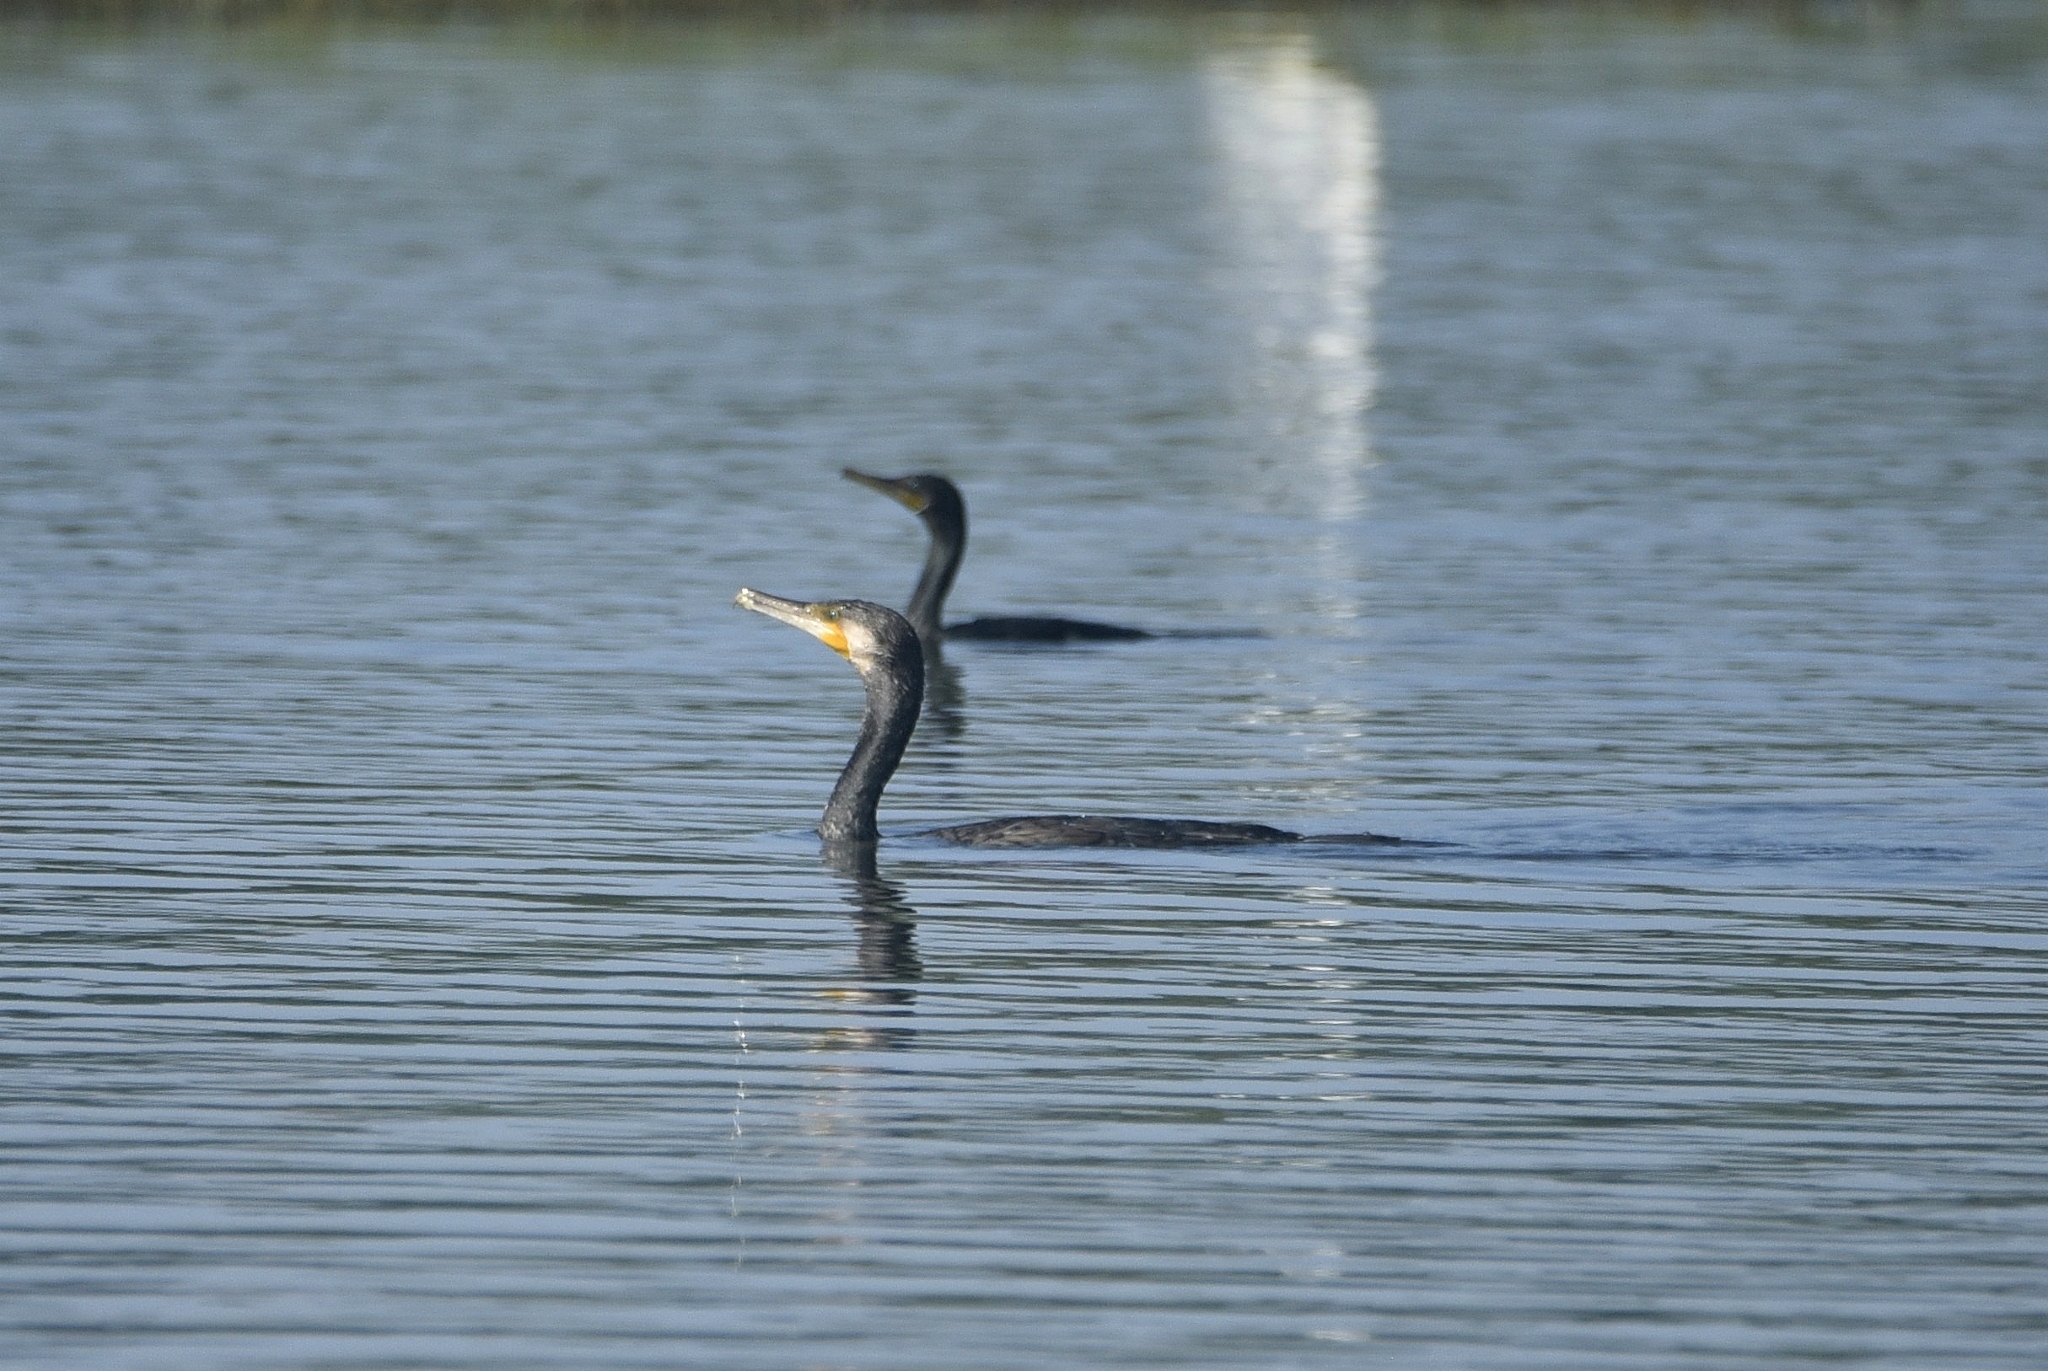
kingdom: Animalia
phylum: Chordata
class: Aves
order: Suliformes
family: Phalacrocoracidae
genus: Phalacrocorax
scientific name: Phalacrocorax carbo
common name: Great cormorant
